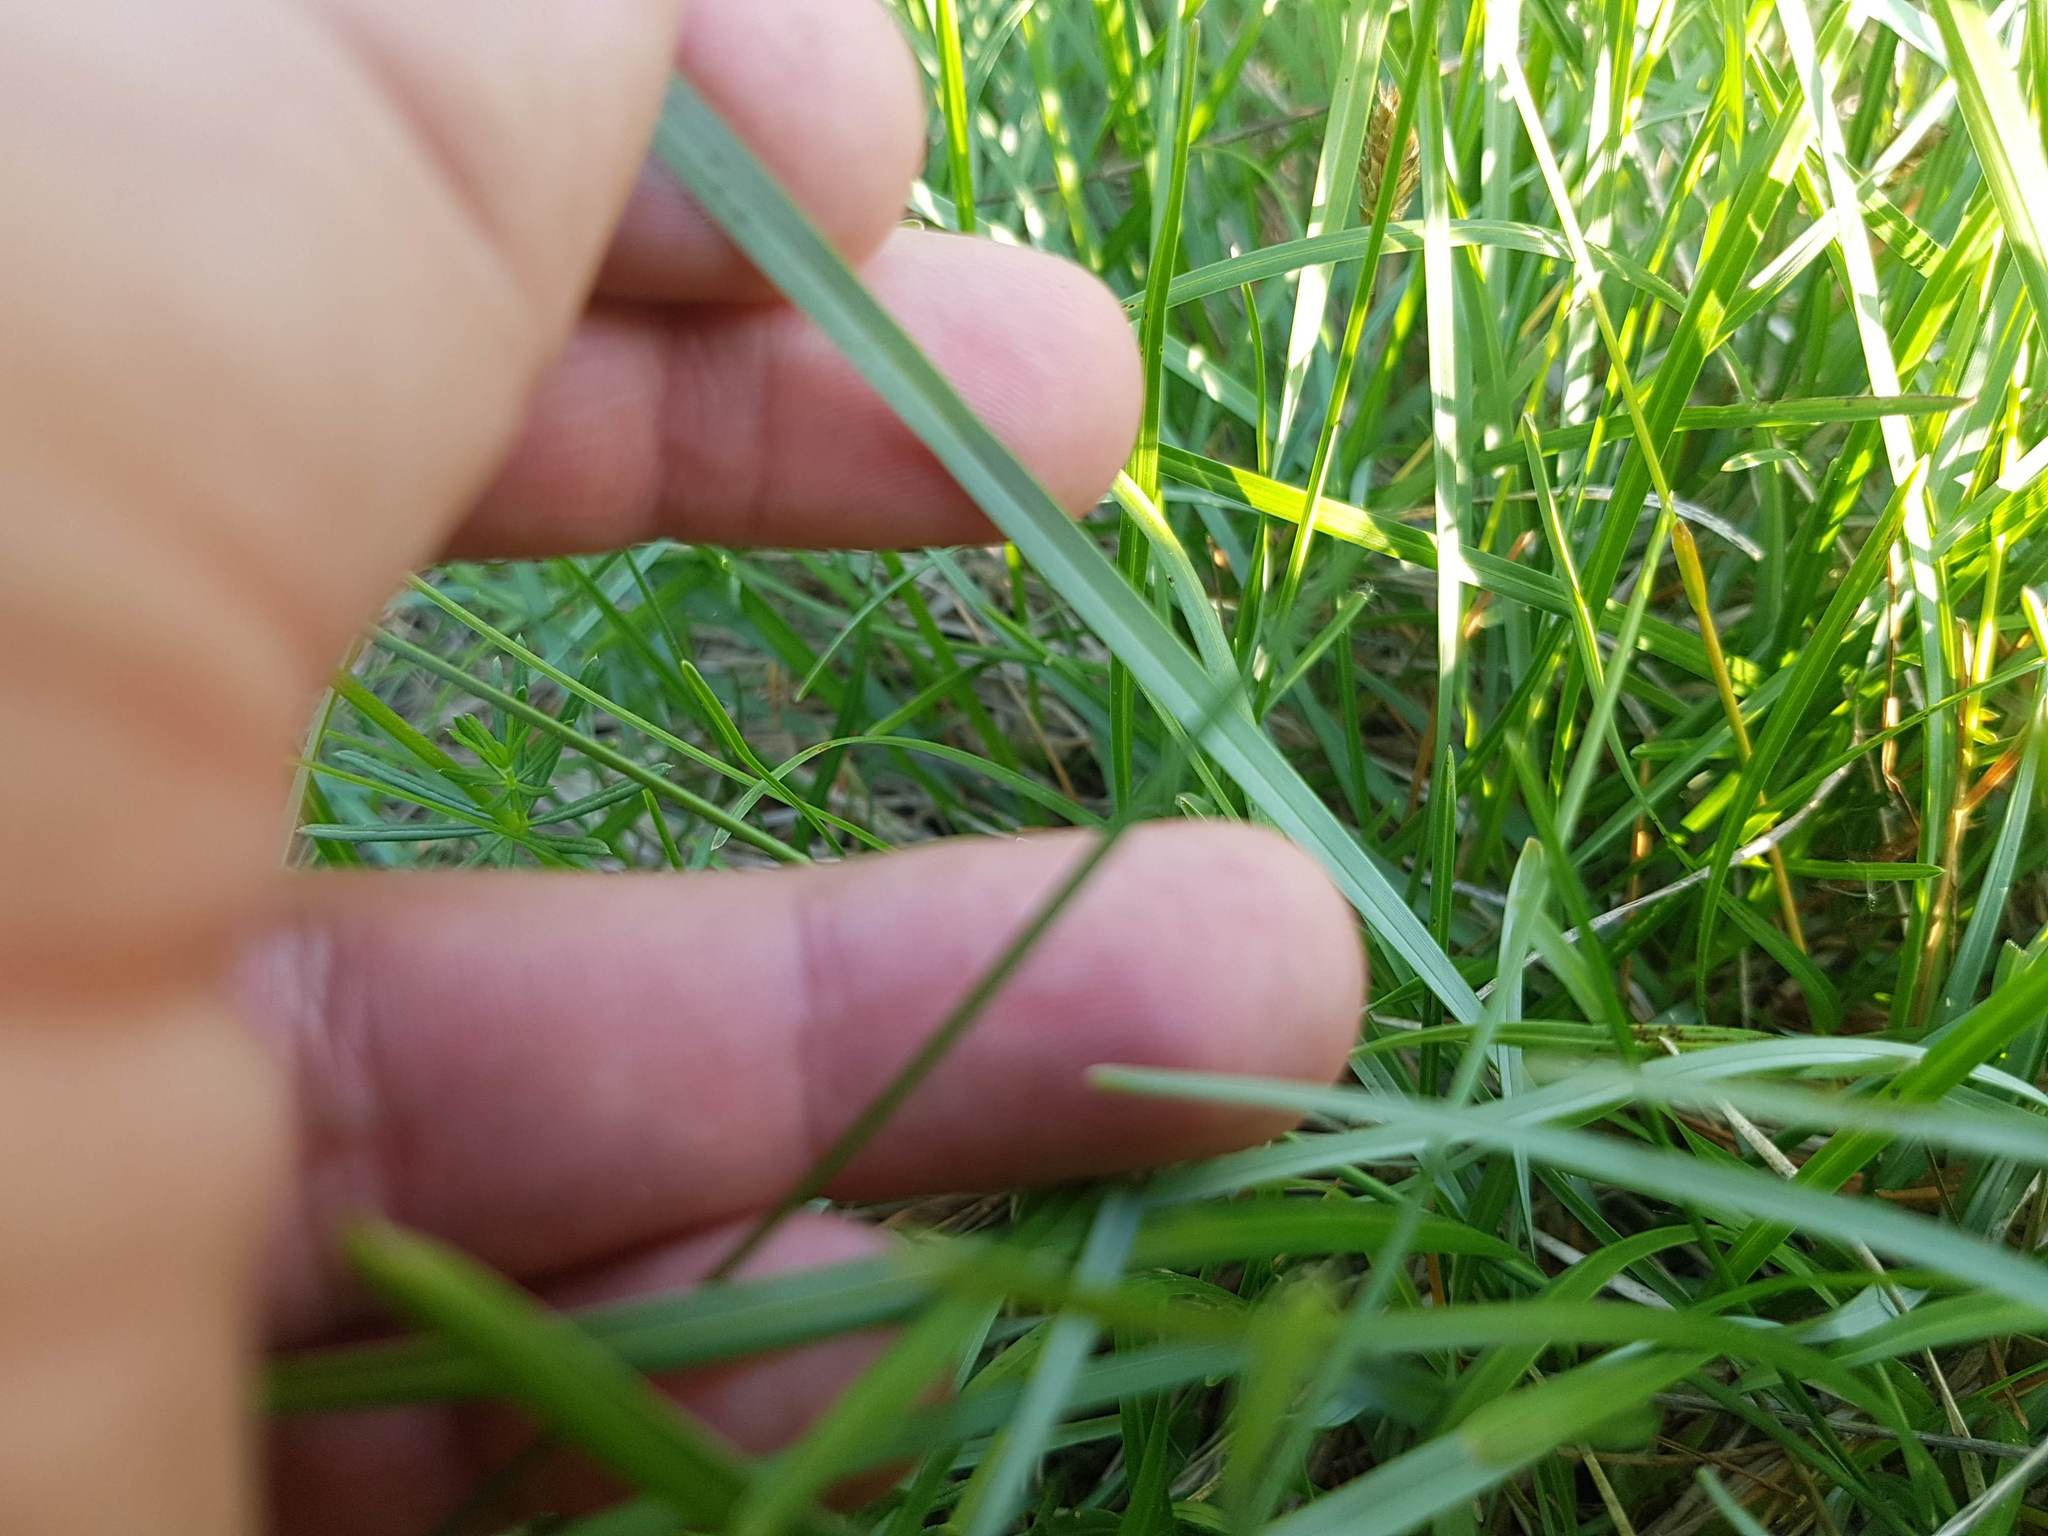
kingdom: Plantae
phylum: Tracheophyta
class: Liliopsida
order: Poales
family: Poaceae
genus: Sesleria
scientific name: Sesleria caerulea
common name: Blue moor-grass
